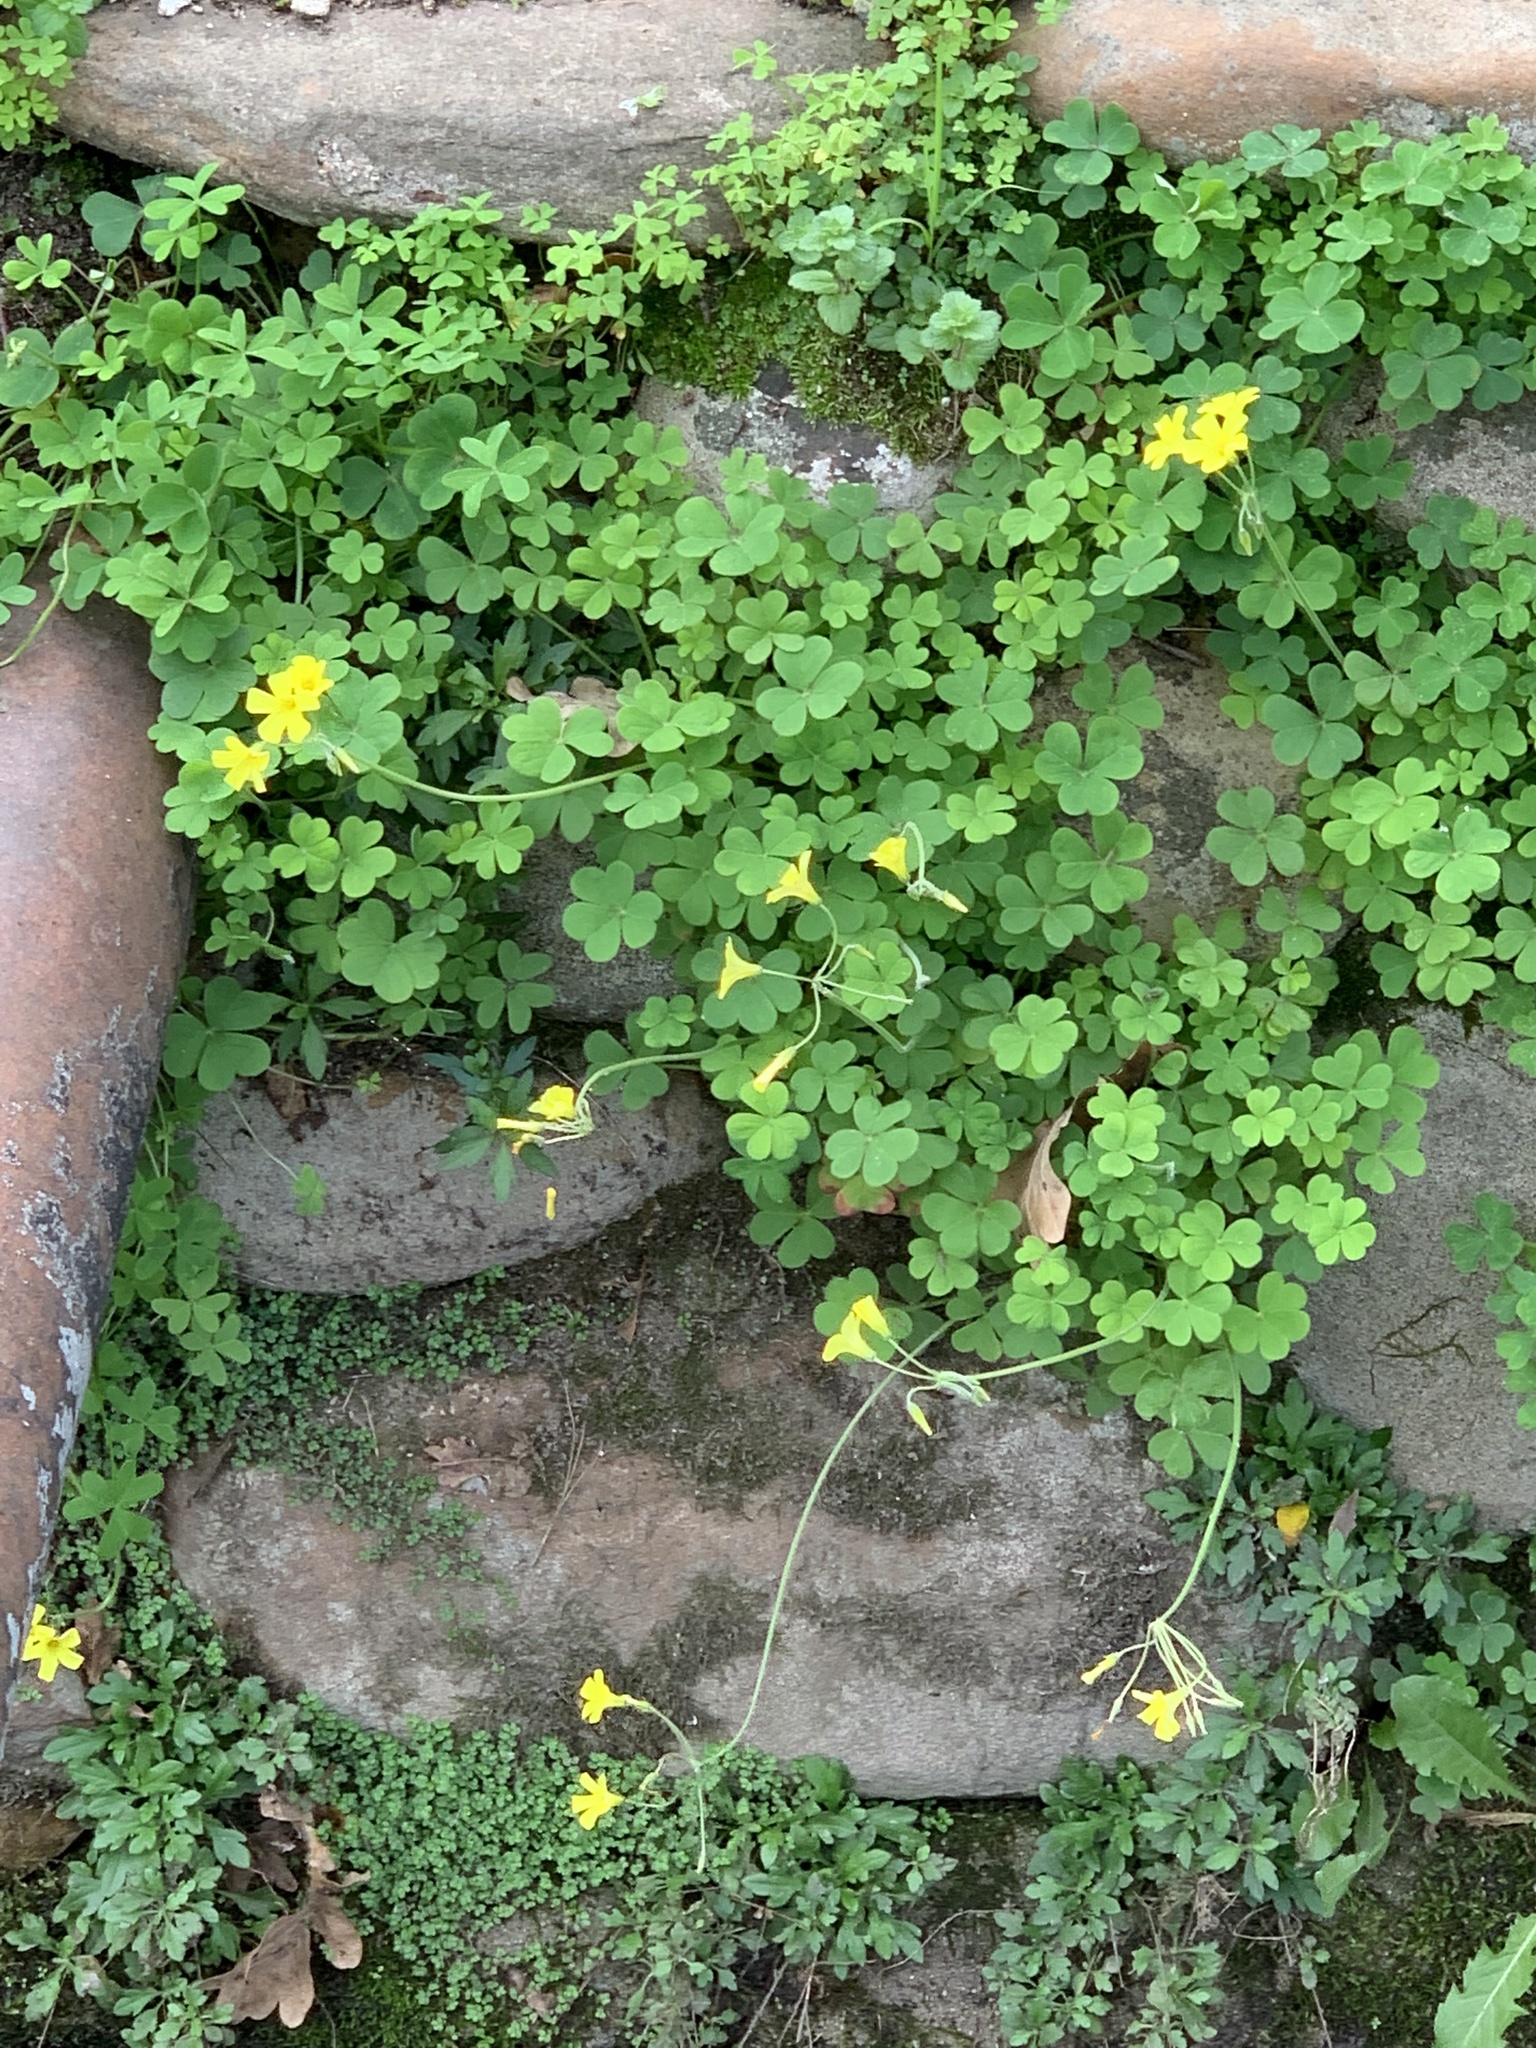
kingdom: Plantae
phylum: Tracheophyta
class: Magnoliopsida
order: Oxalidales
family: Oxalidaceae
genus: Oxalis
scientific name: Oxalis pes-caprae
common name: Bermuda-buttercup
